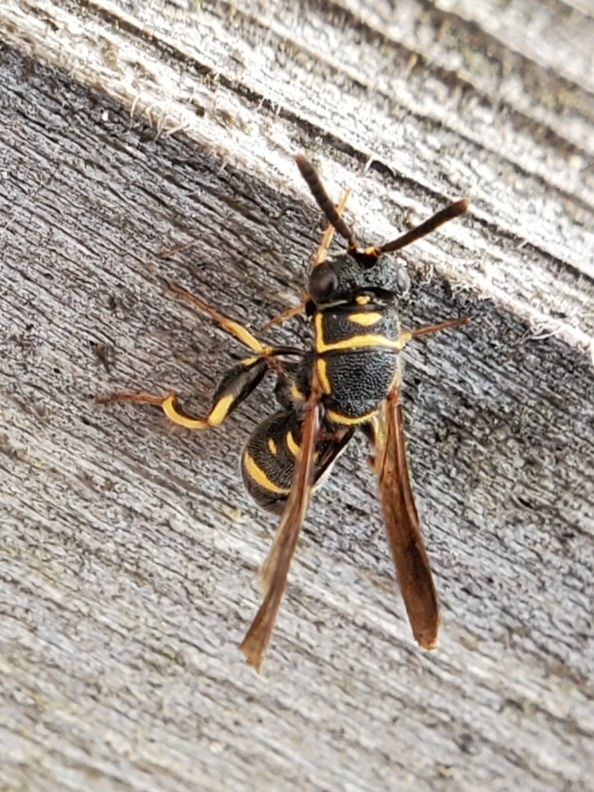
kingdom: Animalia
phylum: Arthropoda
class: Insecta
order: Hymenoptera
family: Leucospidae
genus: Leucospis
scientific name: Leucospis affinis
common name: Wasp
